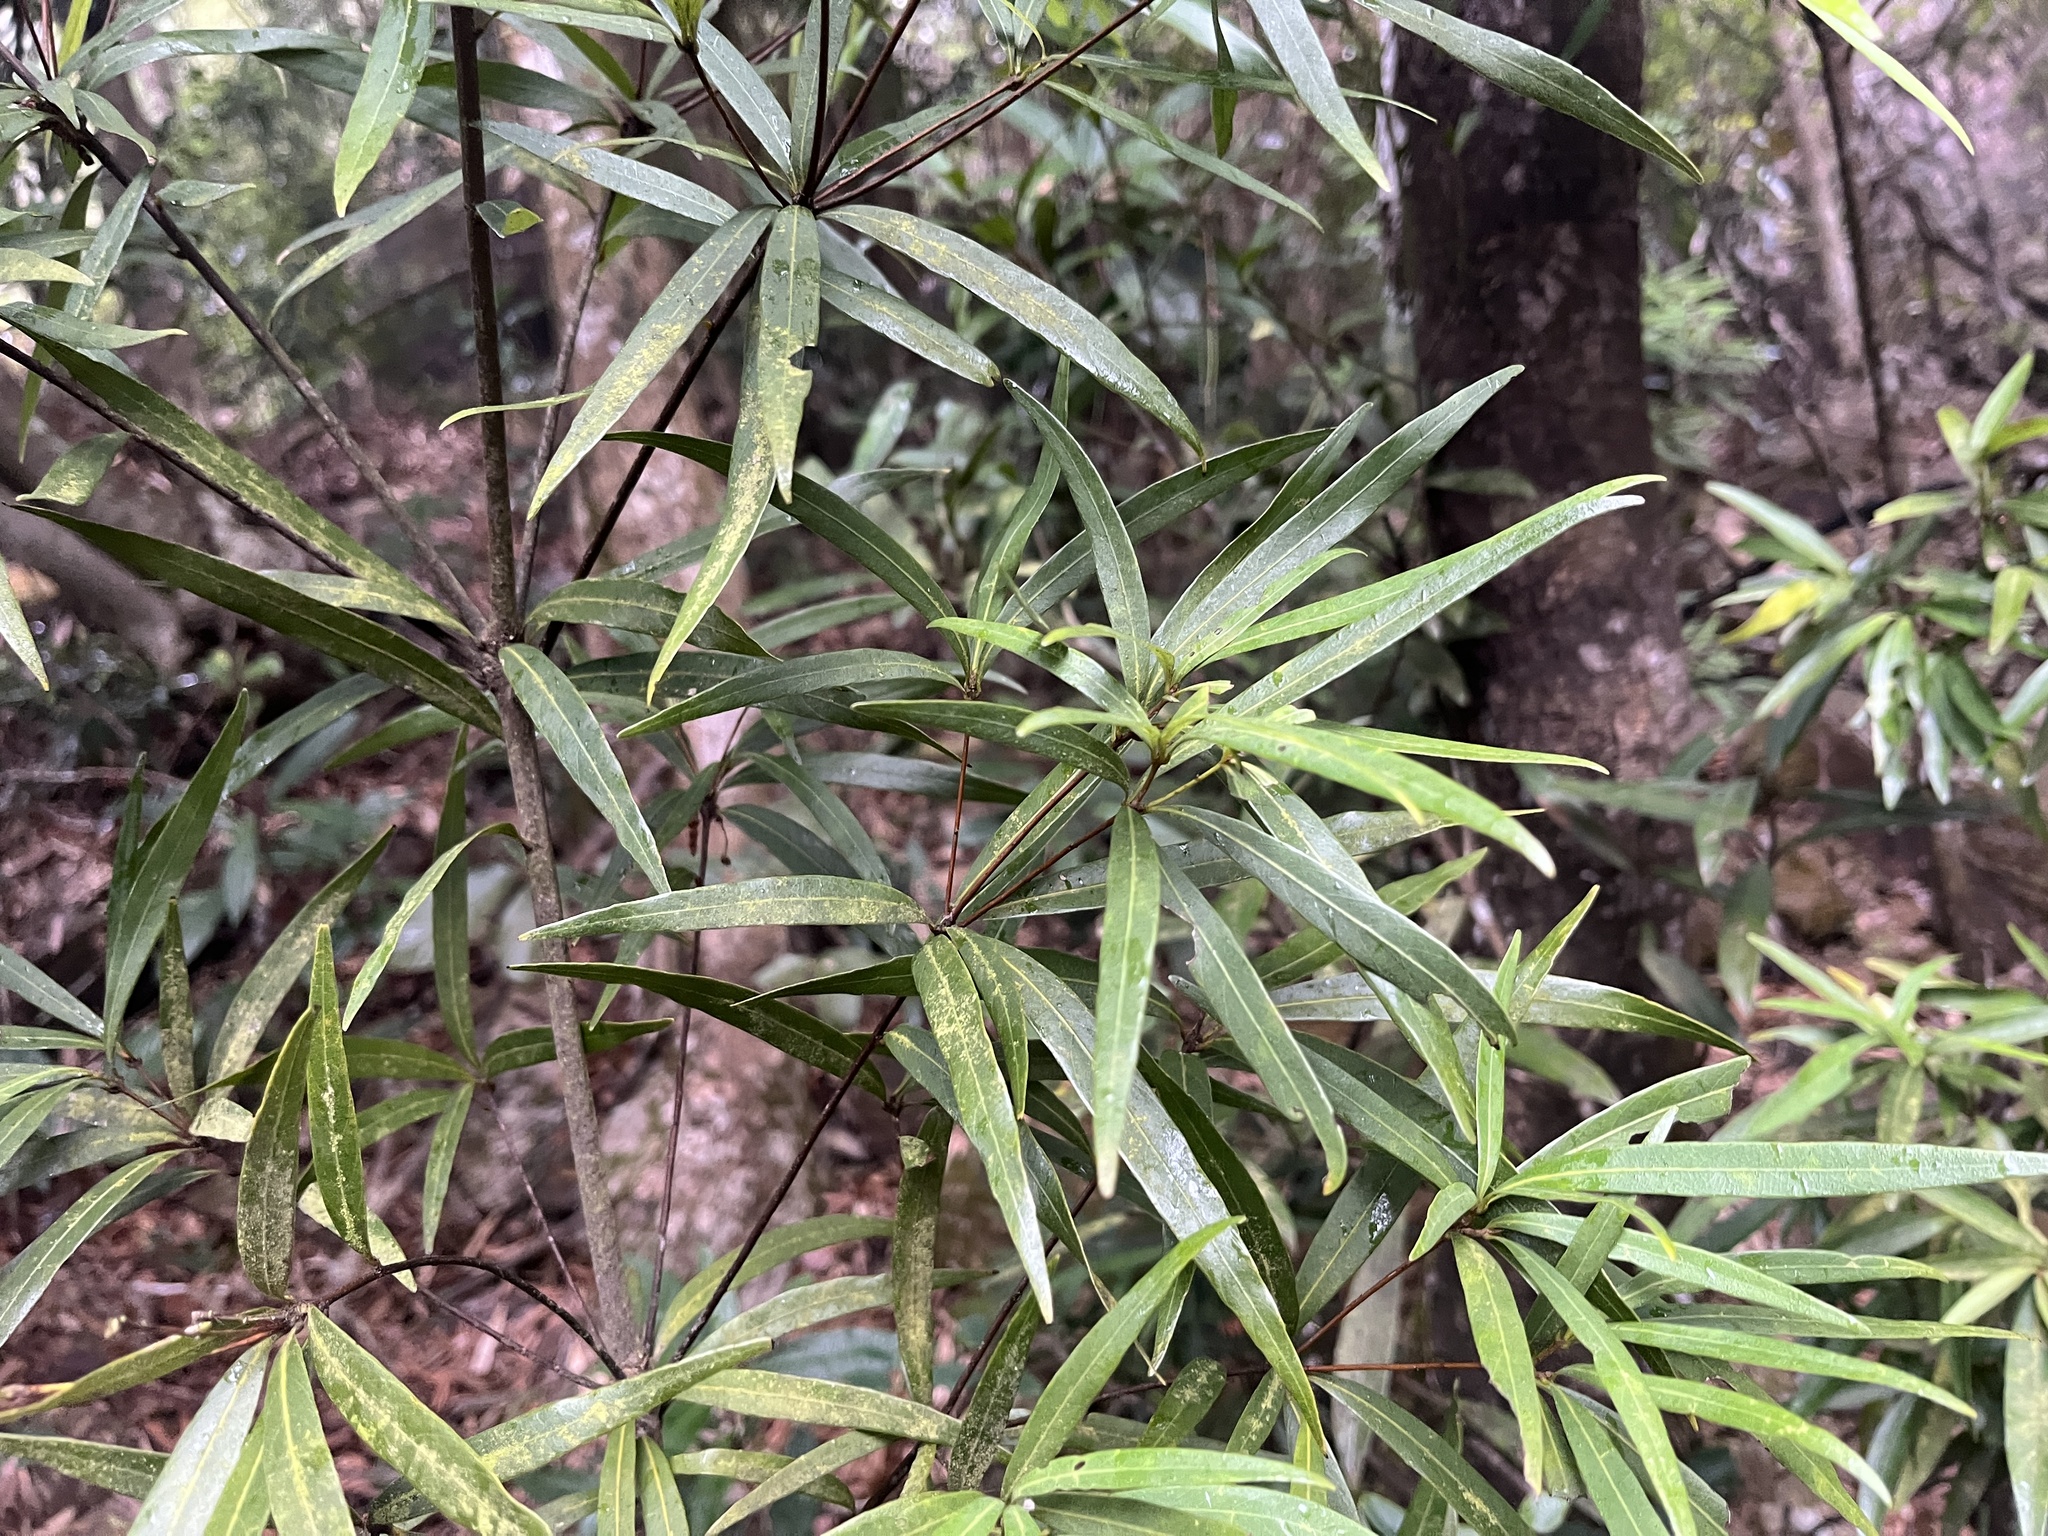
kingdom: Plantae
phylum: Tracheophyta
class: Magnoliopsida
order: Fagales
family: Fagaceae
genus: Quercus
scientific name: Quercus bambusifolia
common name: Bamboo-leaf oak
